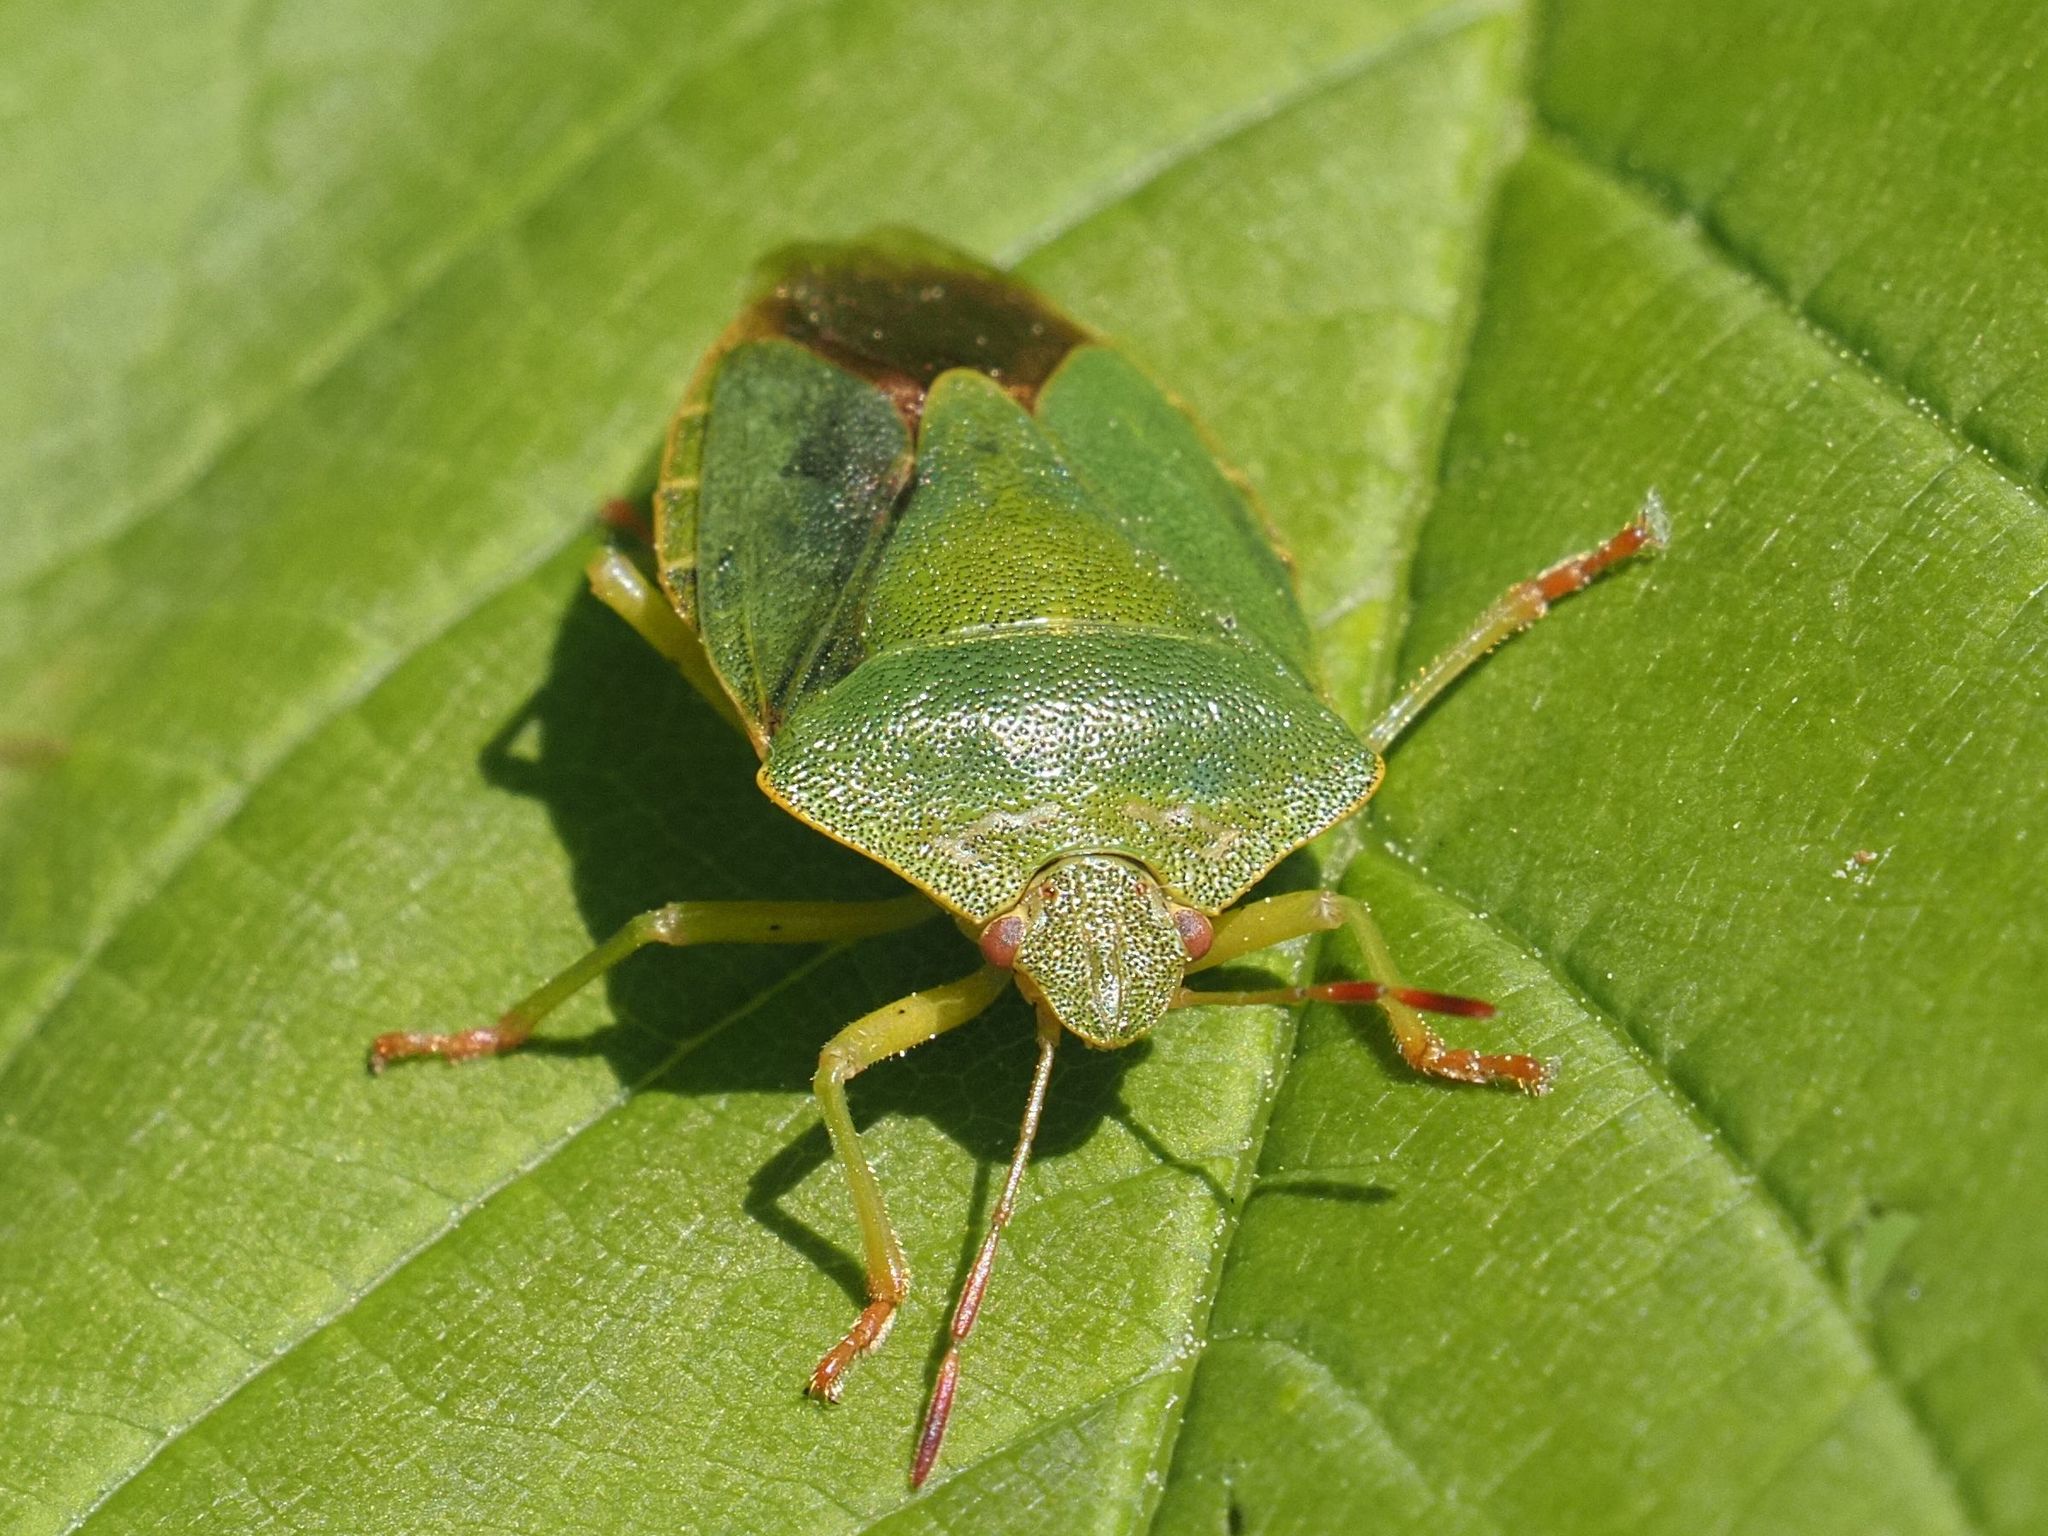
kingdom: Animalia
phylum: Arthropoda
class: Insecta
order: Hemiptera
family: Pentatomidae
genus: Palomena
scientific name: Palomena prasina
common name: Green shieldbug
